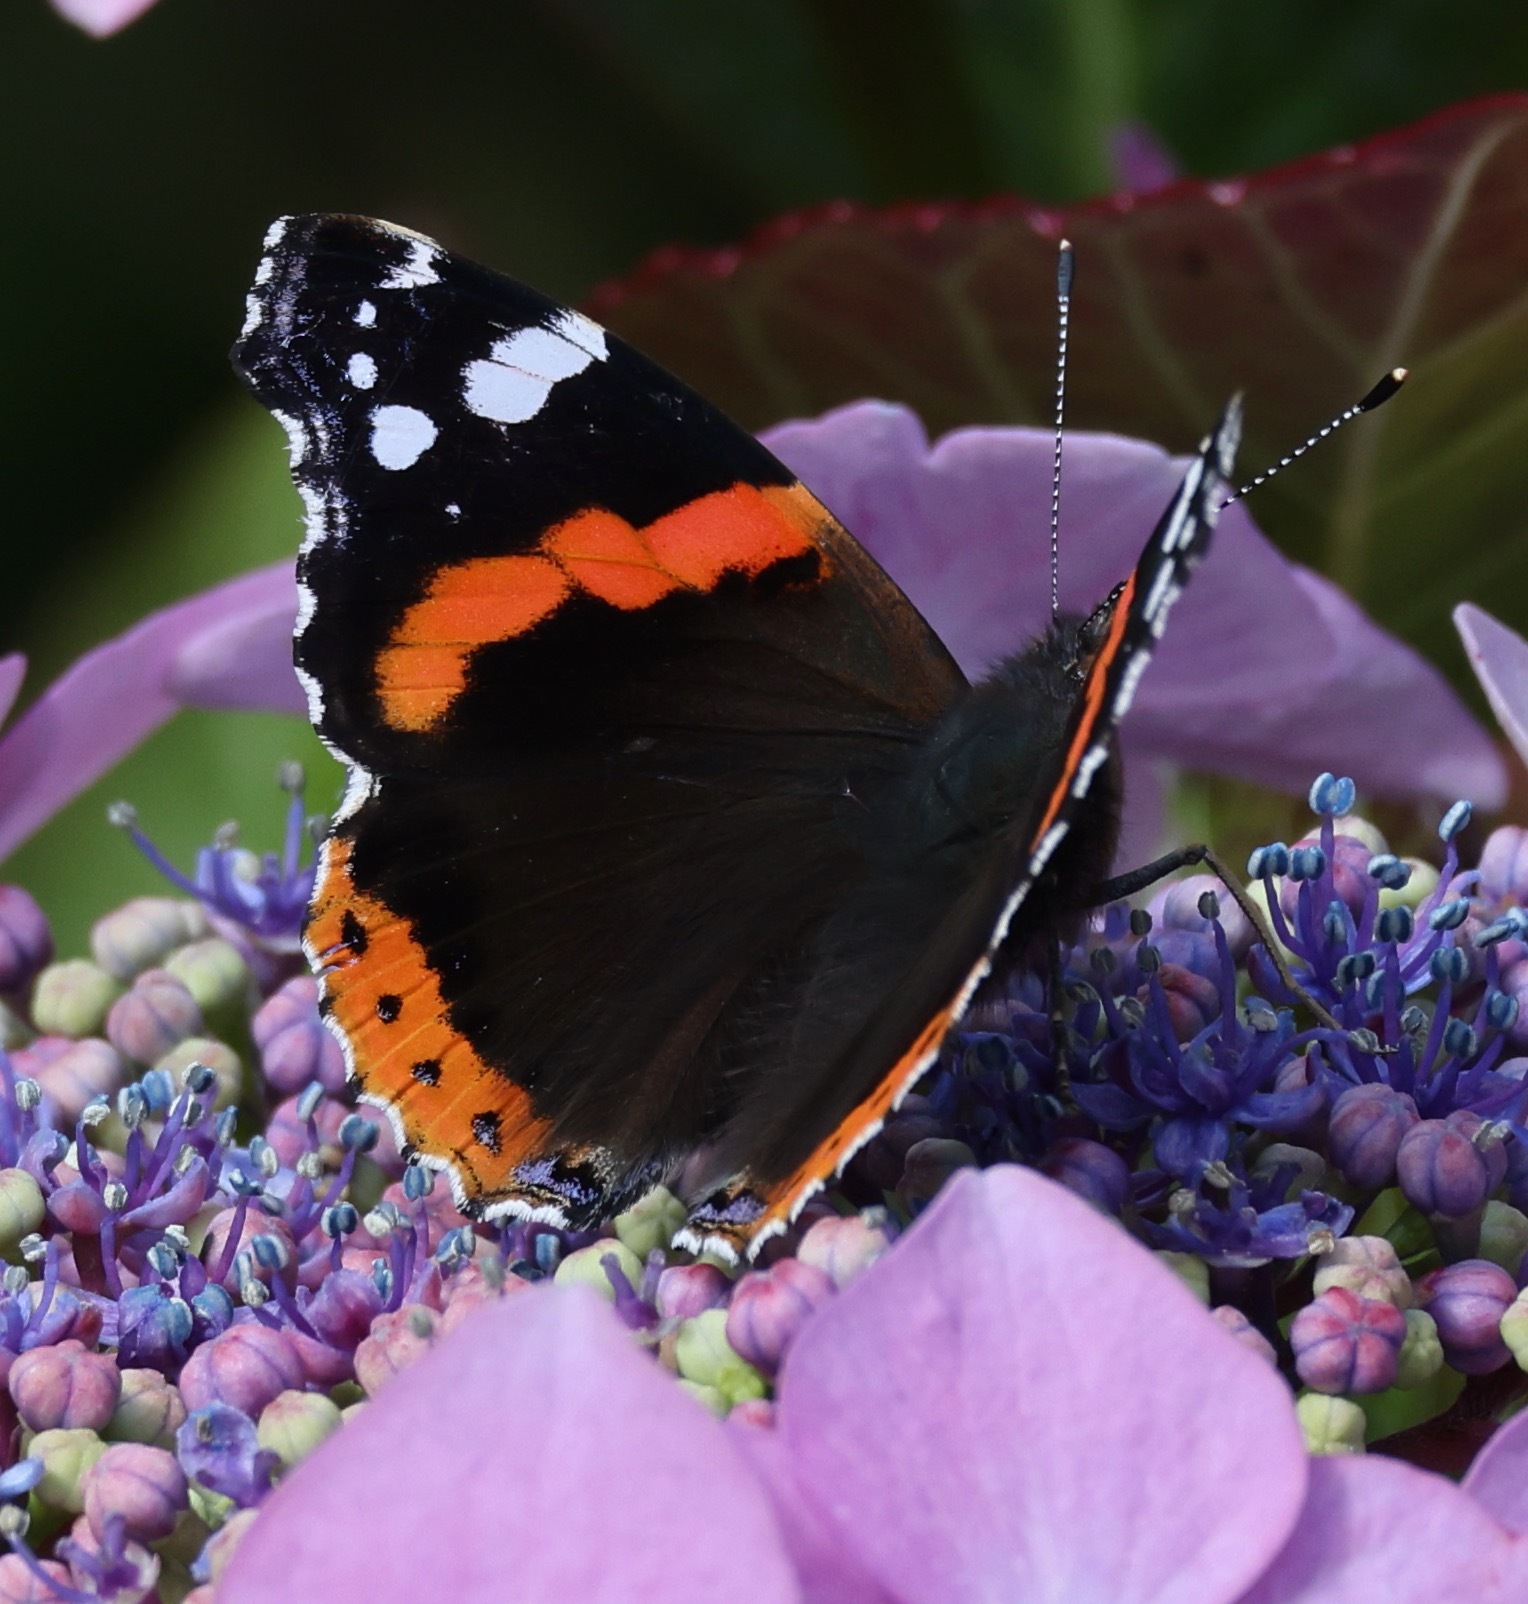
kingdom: Animalia
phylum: Arthropoda
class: Insecta
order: Lepidoptera
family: Nymphalidae
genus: Vanessa
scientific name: Vanessa atalanta
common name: Red admiral
